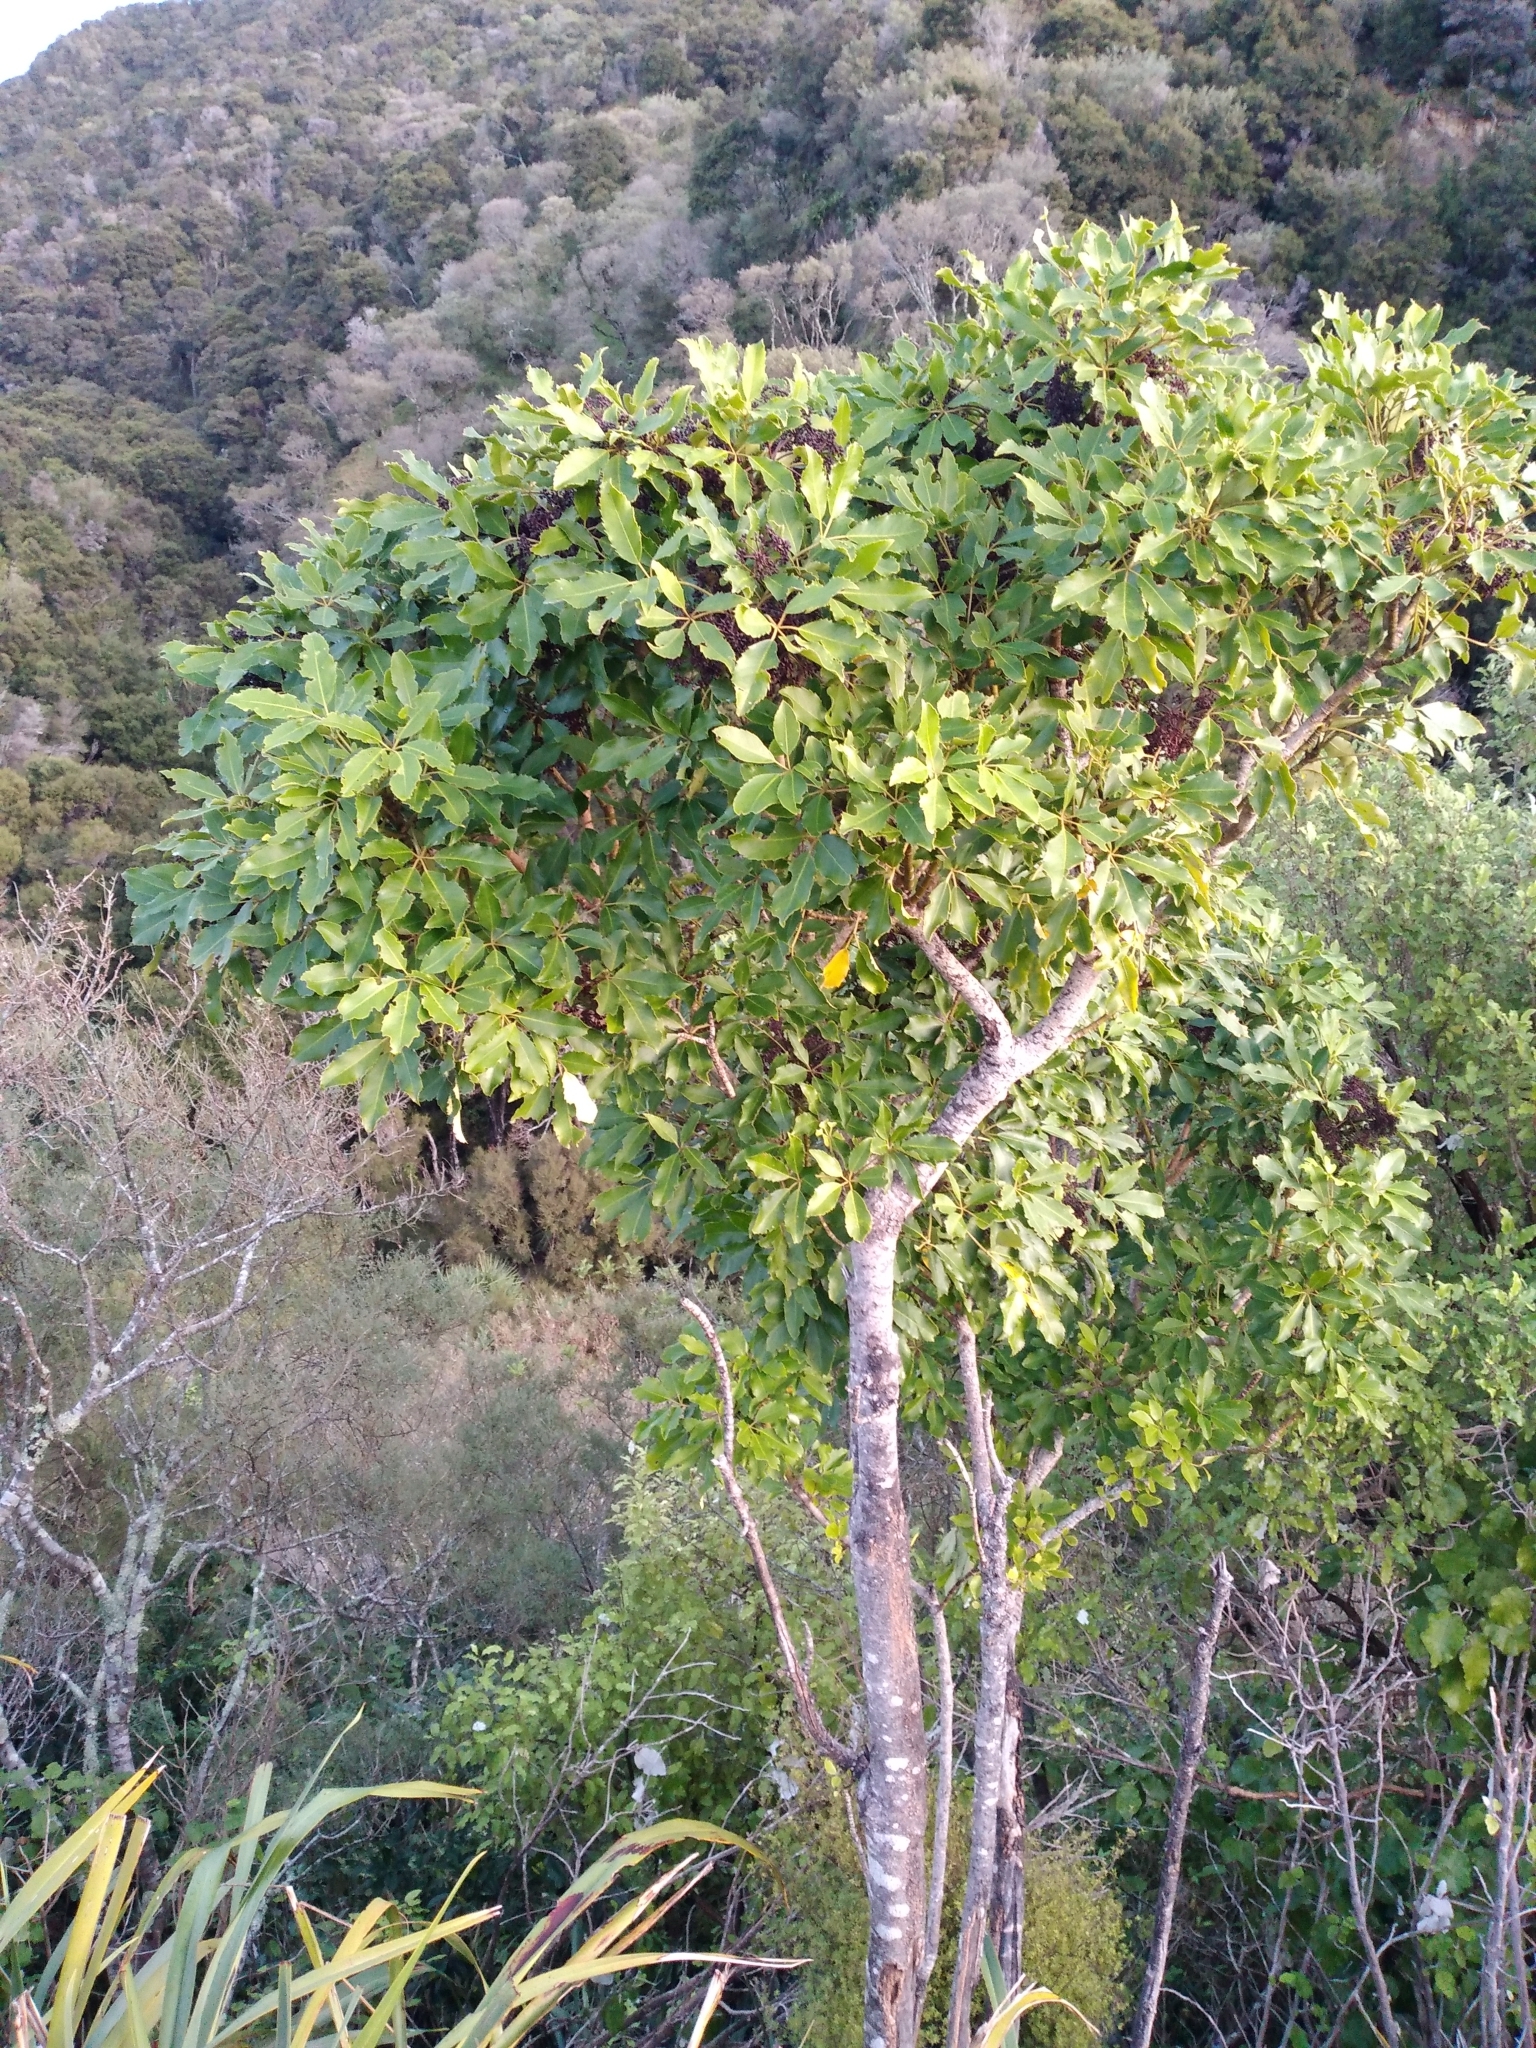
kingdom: Plantae
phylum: Tracheophyta
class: Magnoliopsida
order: Apiales
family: Araliaceae
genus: Neopanax
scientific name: Neopanax arboreus
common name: Five-fingers
